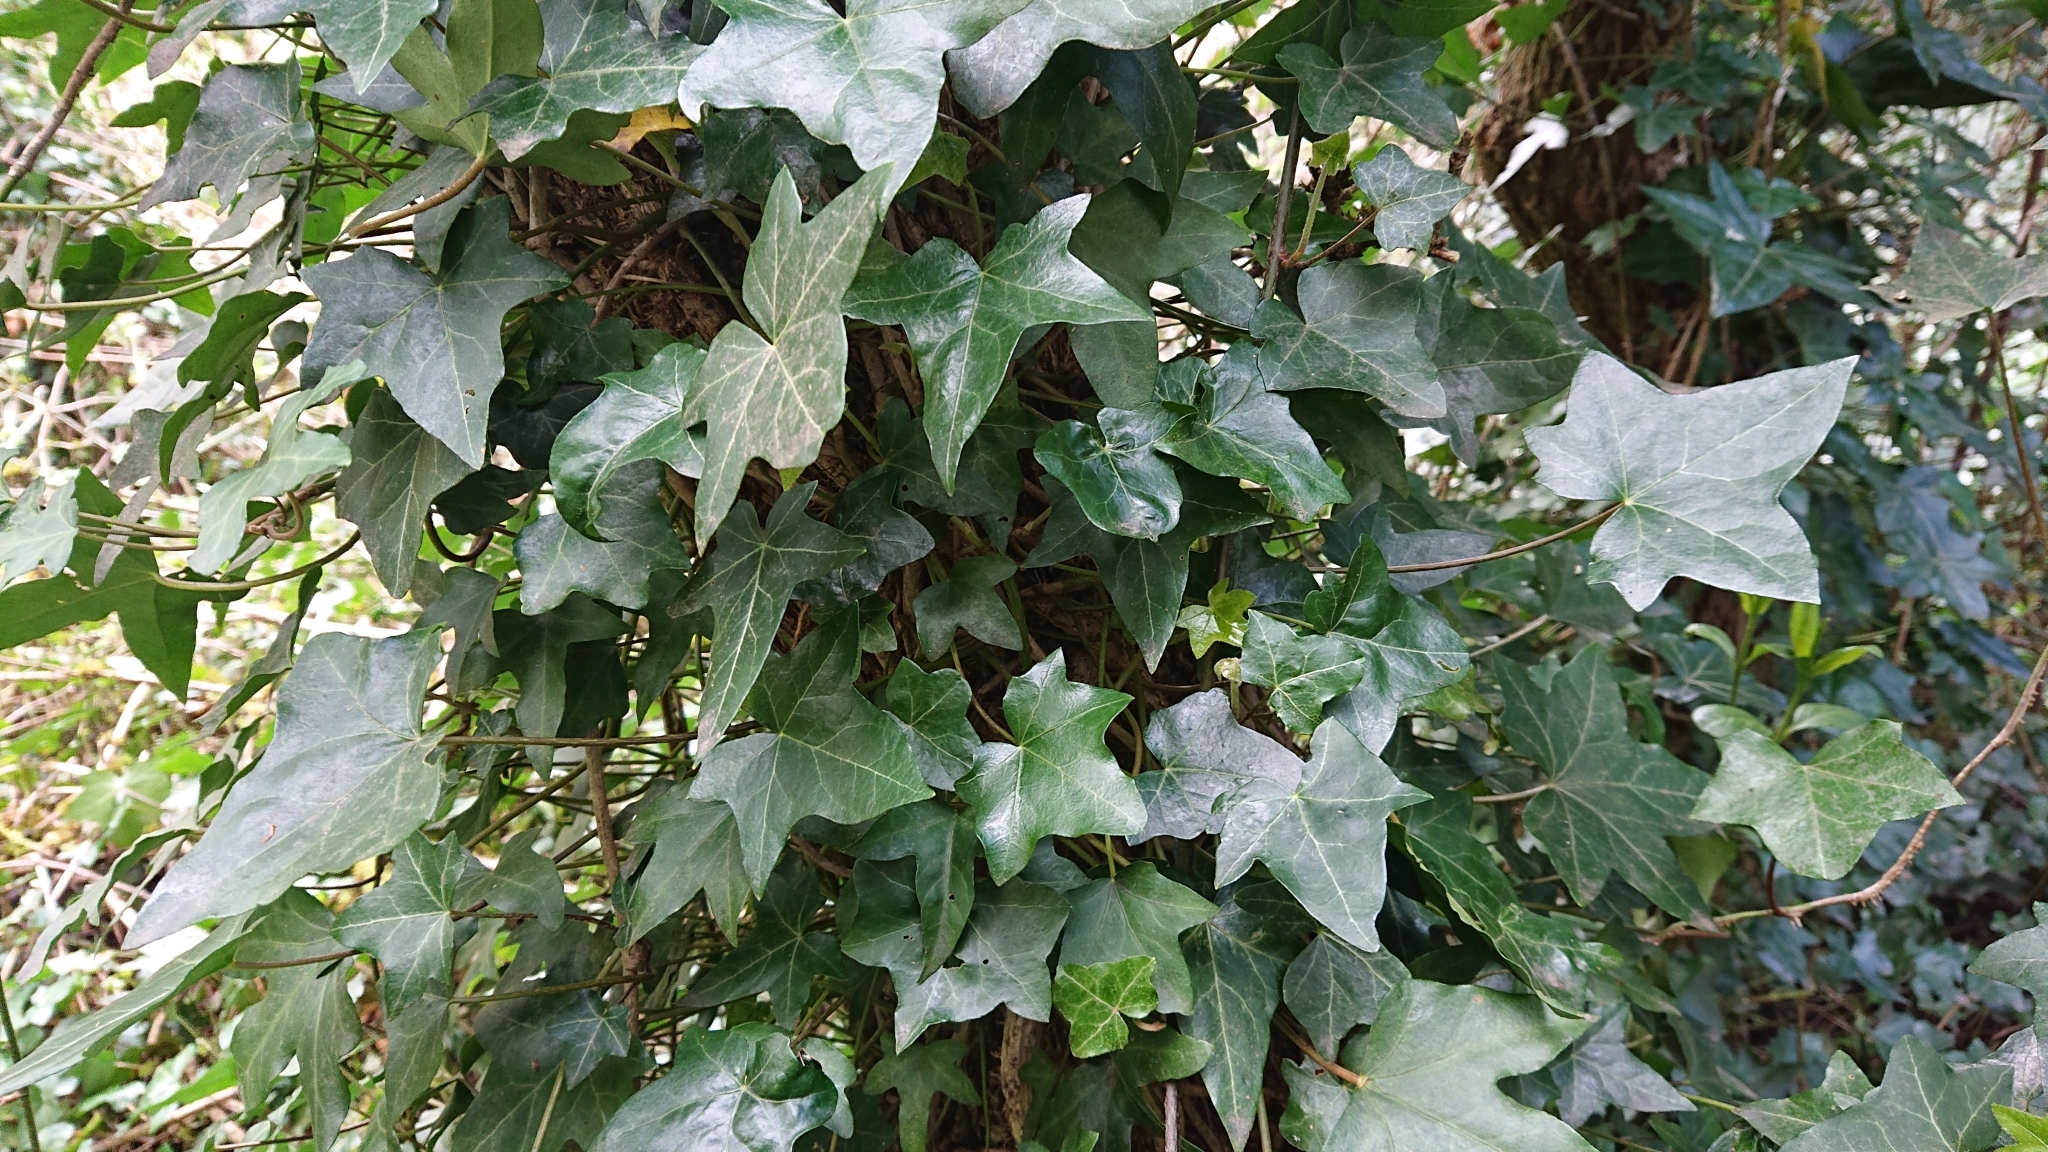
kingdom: Plantae
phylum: Tracheophyta
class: Magnoliopsida
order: Apiales
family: Araliaceae
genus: Hedera
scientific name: Hedera helix
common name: Ivy
